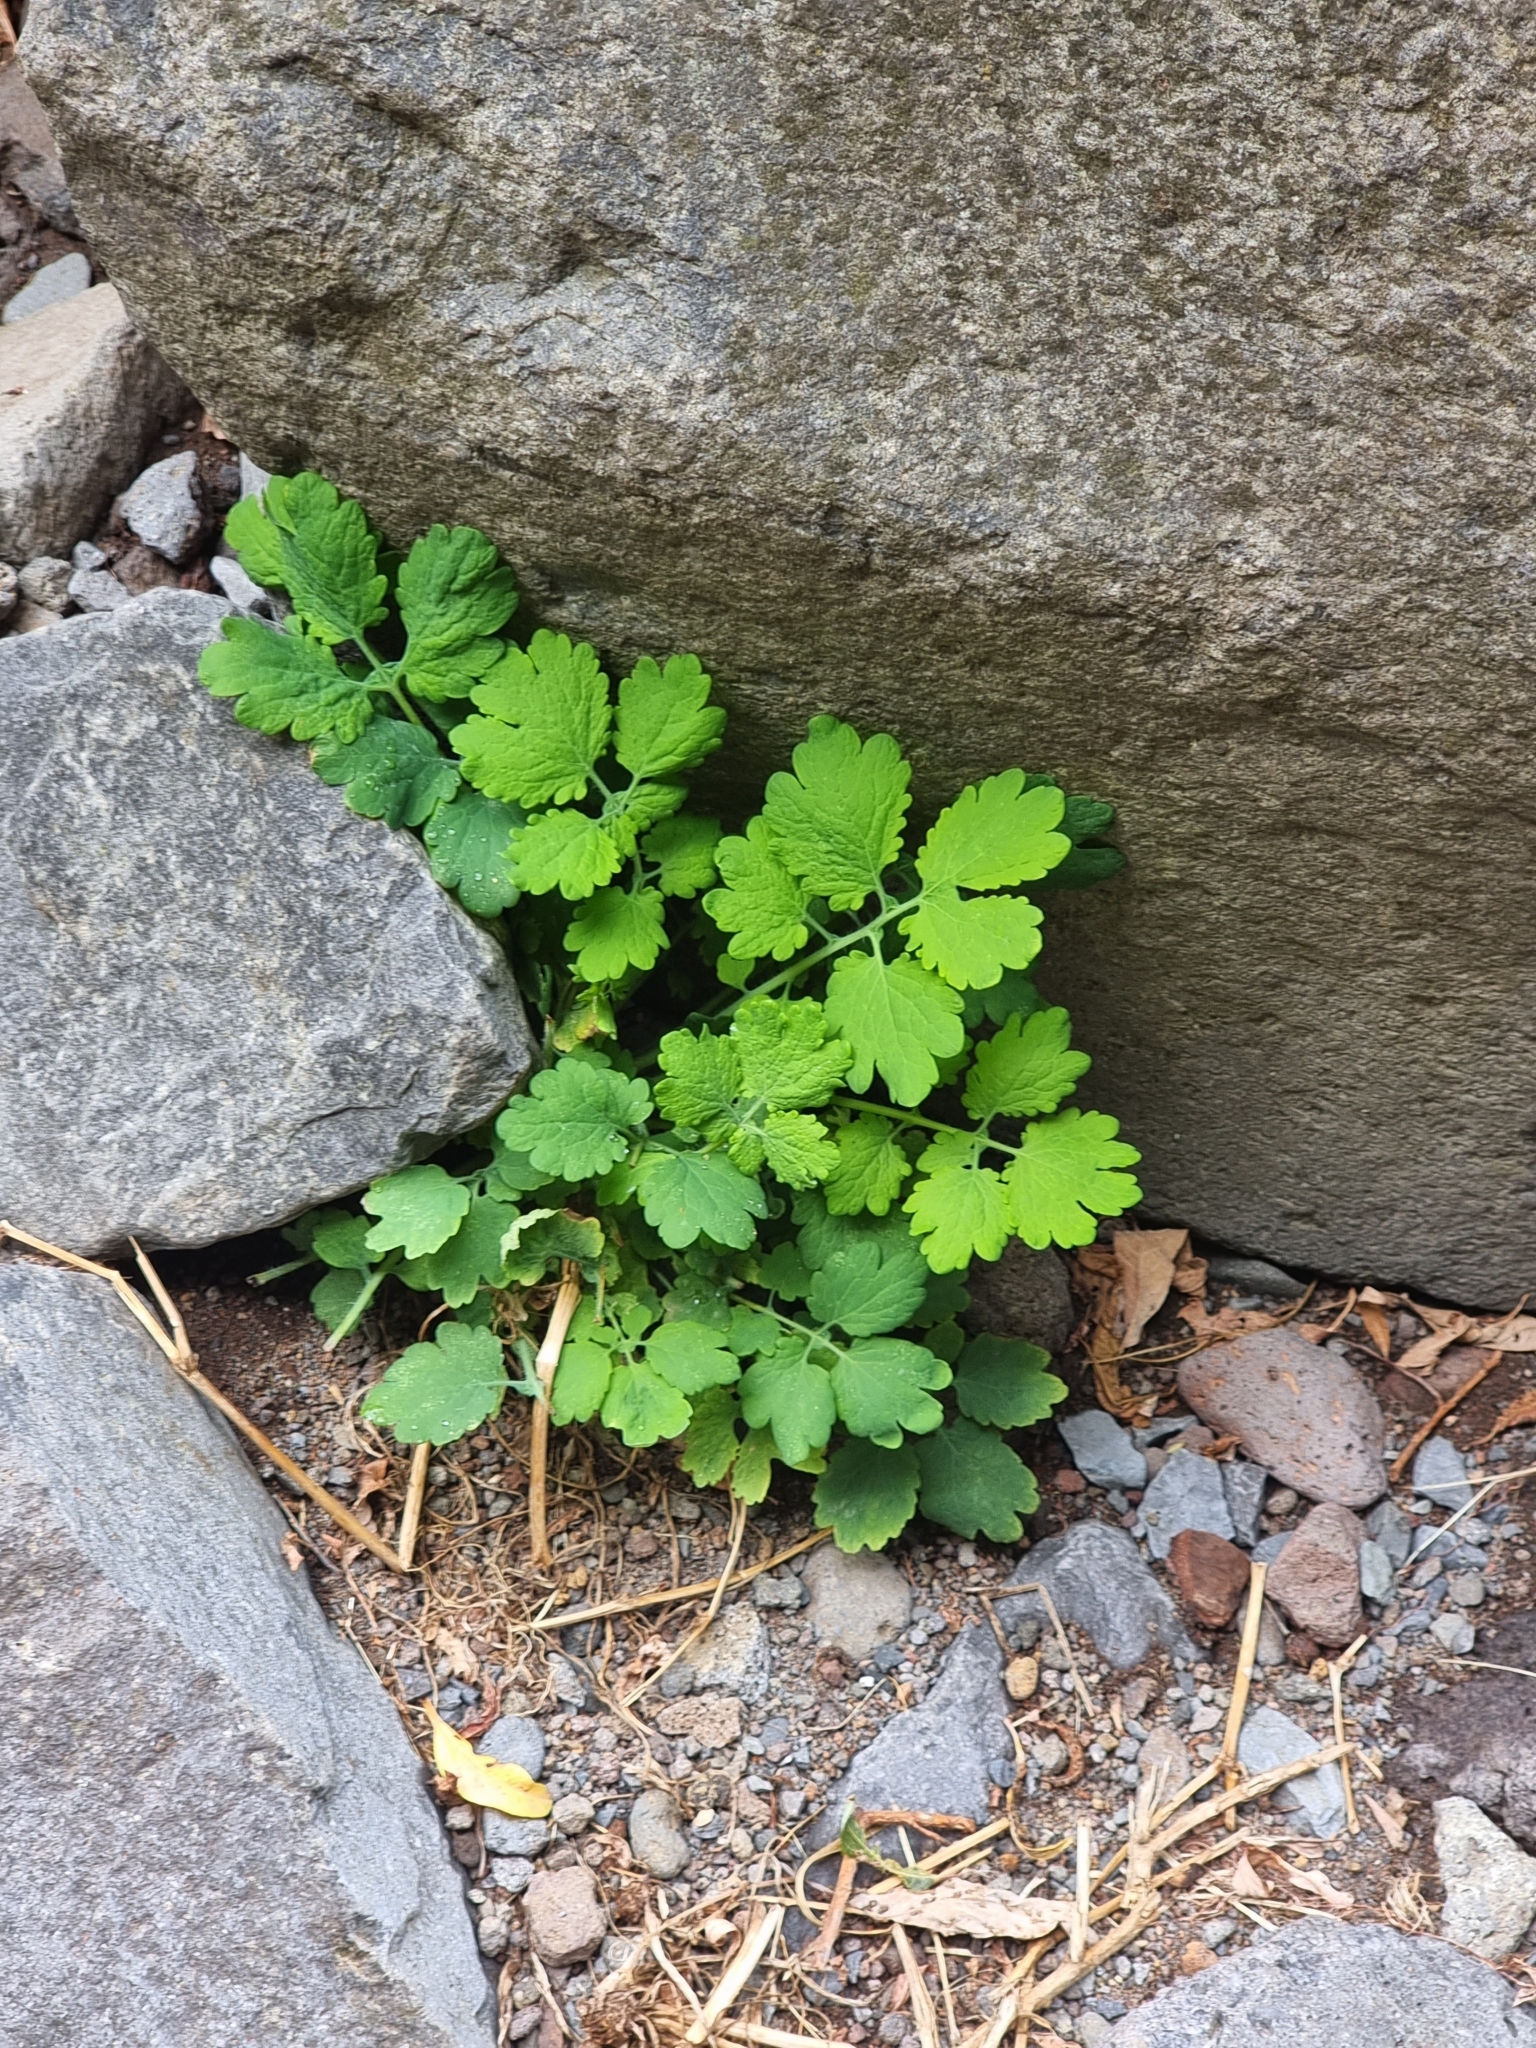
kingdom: Plantae
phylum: Tracheophyta
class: Magnoliopsida
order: Ranunculales
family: Papaveraceae
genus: Chelidonium
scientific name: Chelidonium majus
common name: Greater celandine
